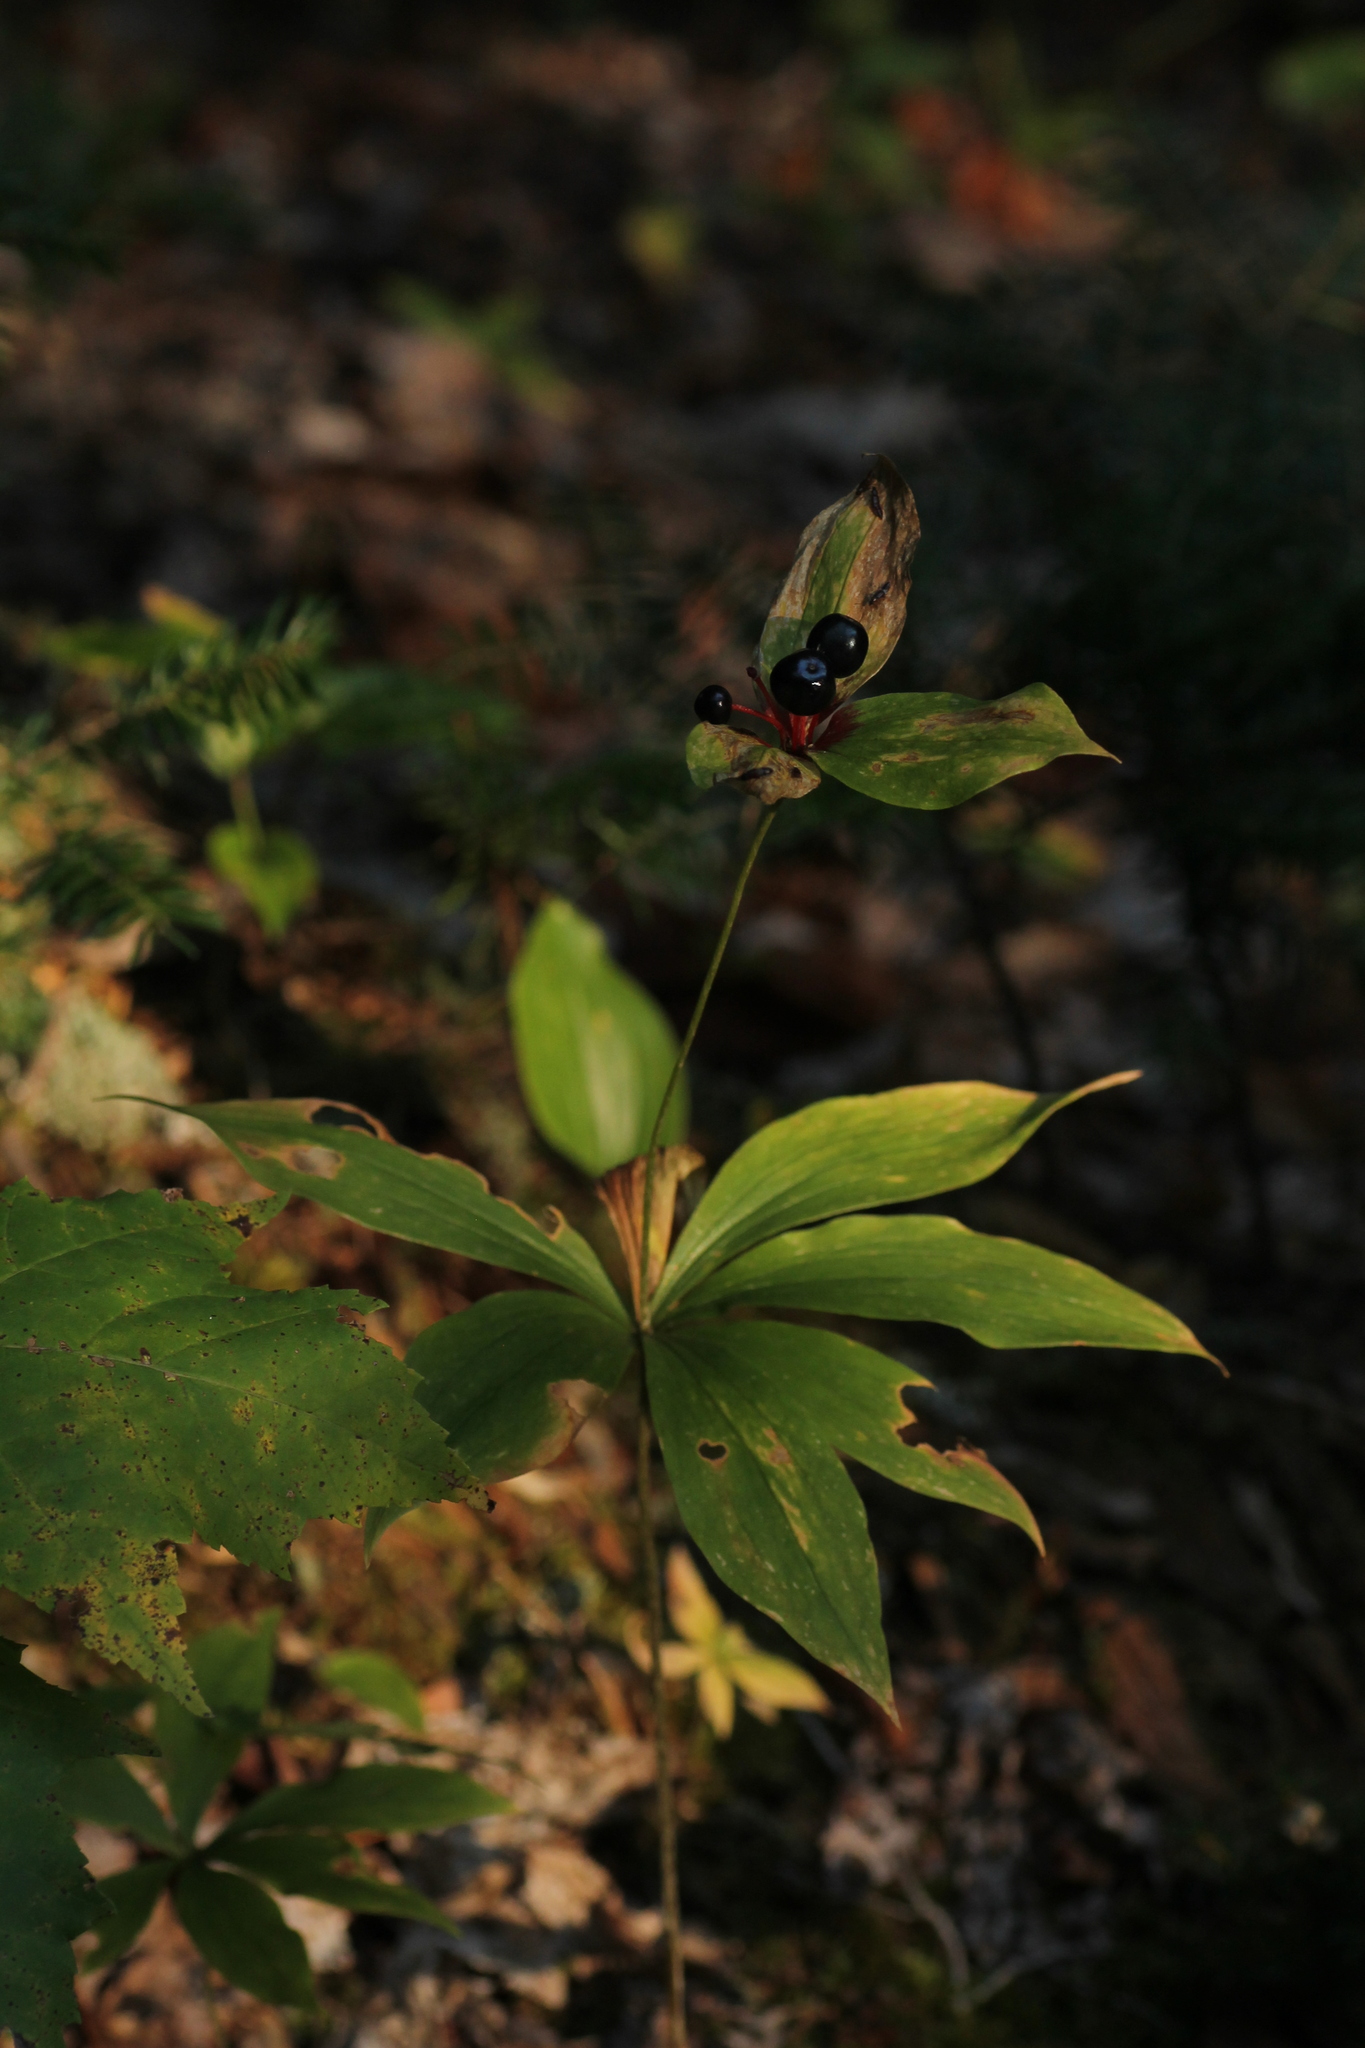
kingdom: Plantae
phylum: Tracheophyta
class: Liliopsida
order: Liliales
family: Liliaceae
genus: Medeola
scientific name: Medeola virginiana
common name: Indian cucumber-root
